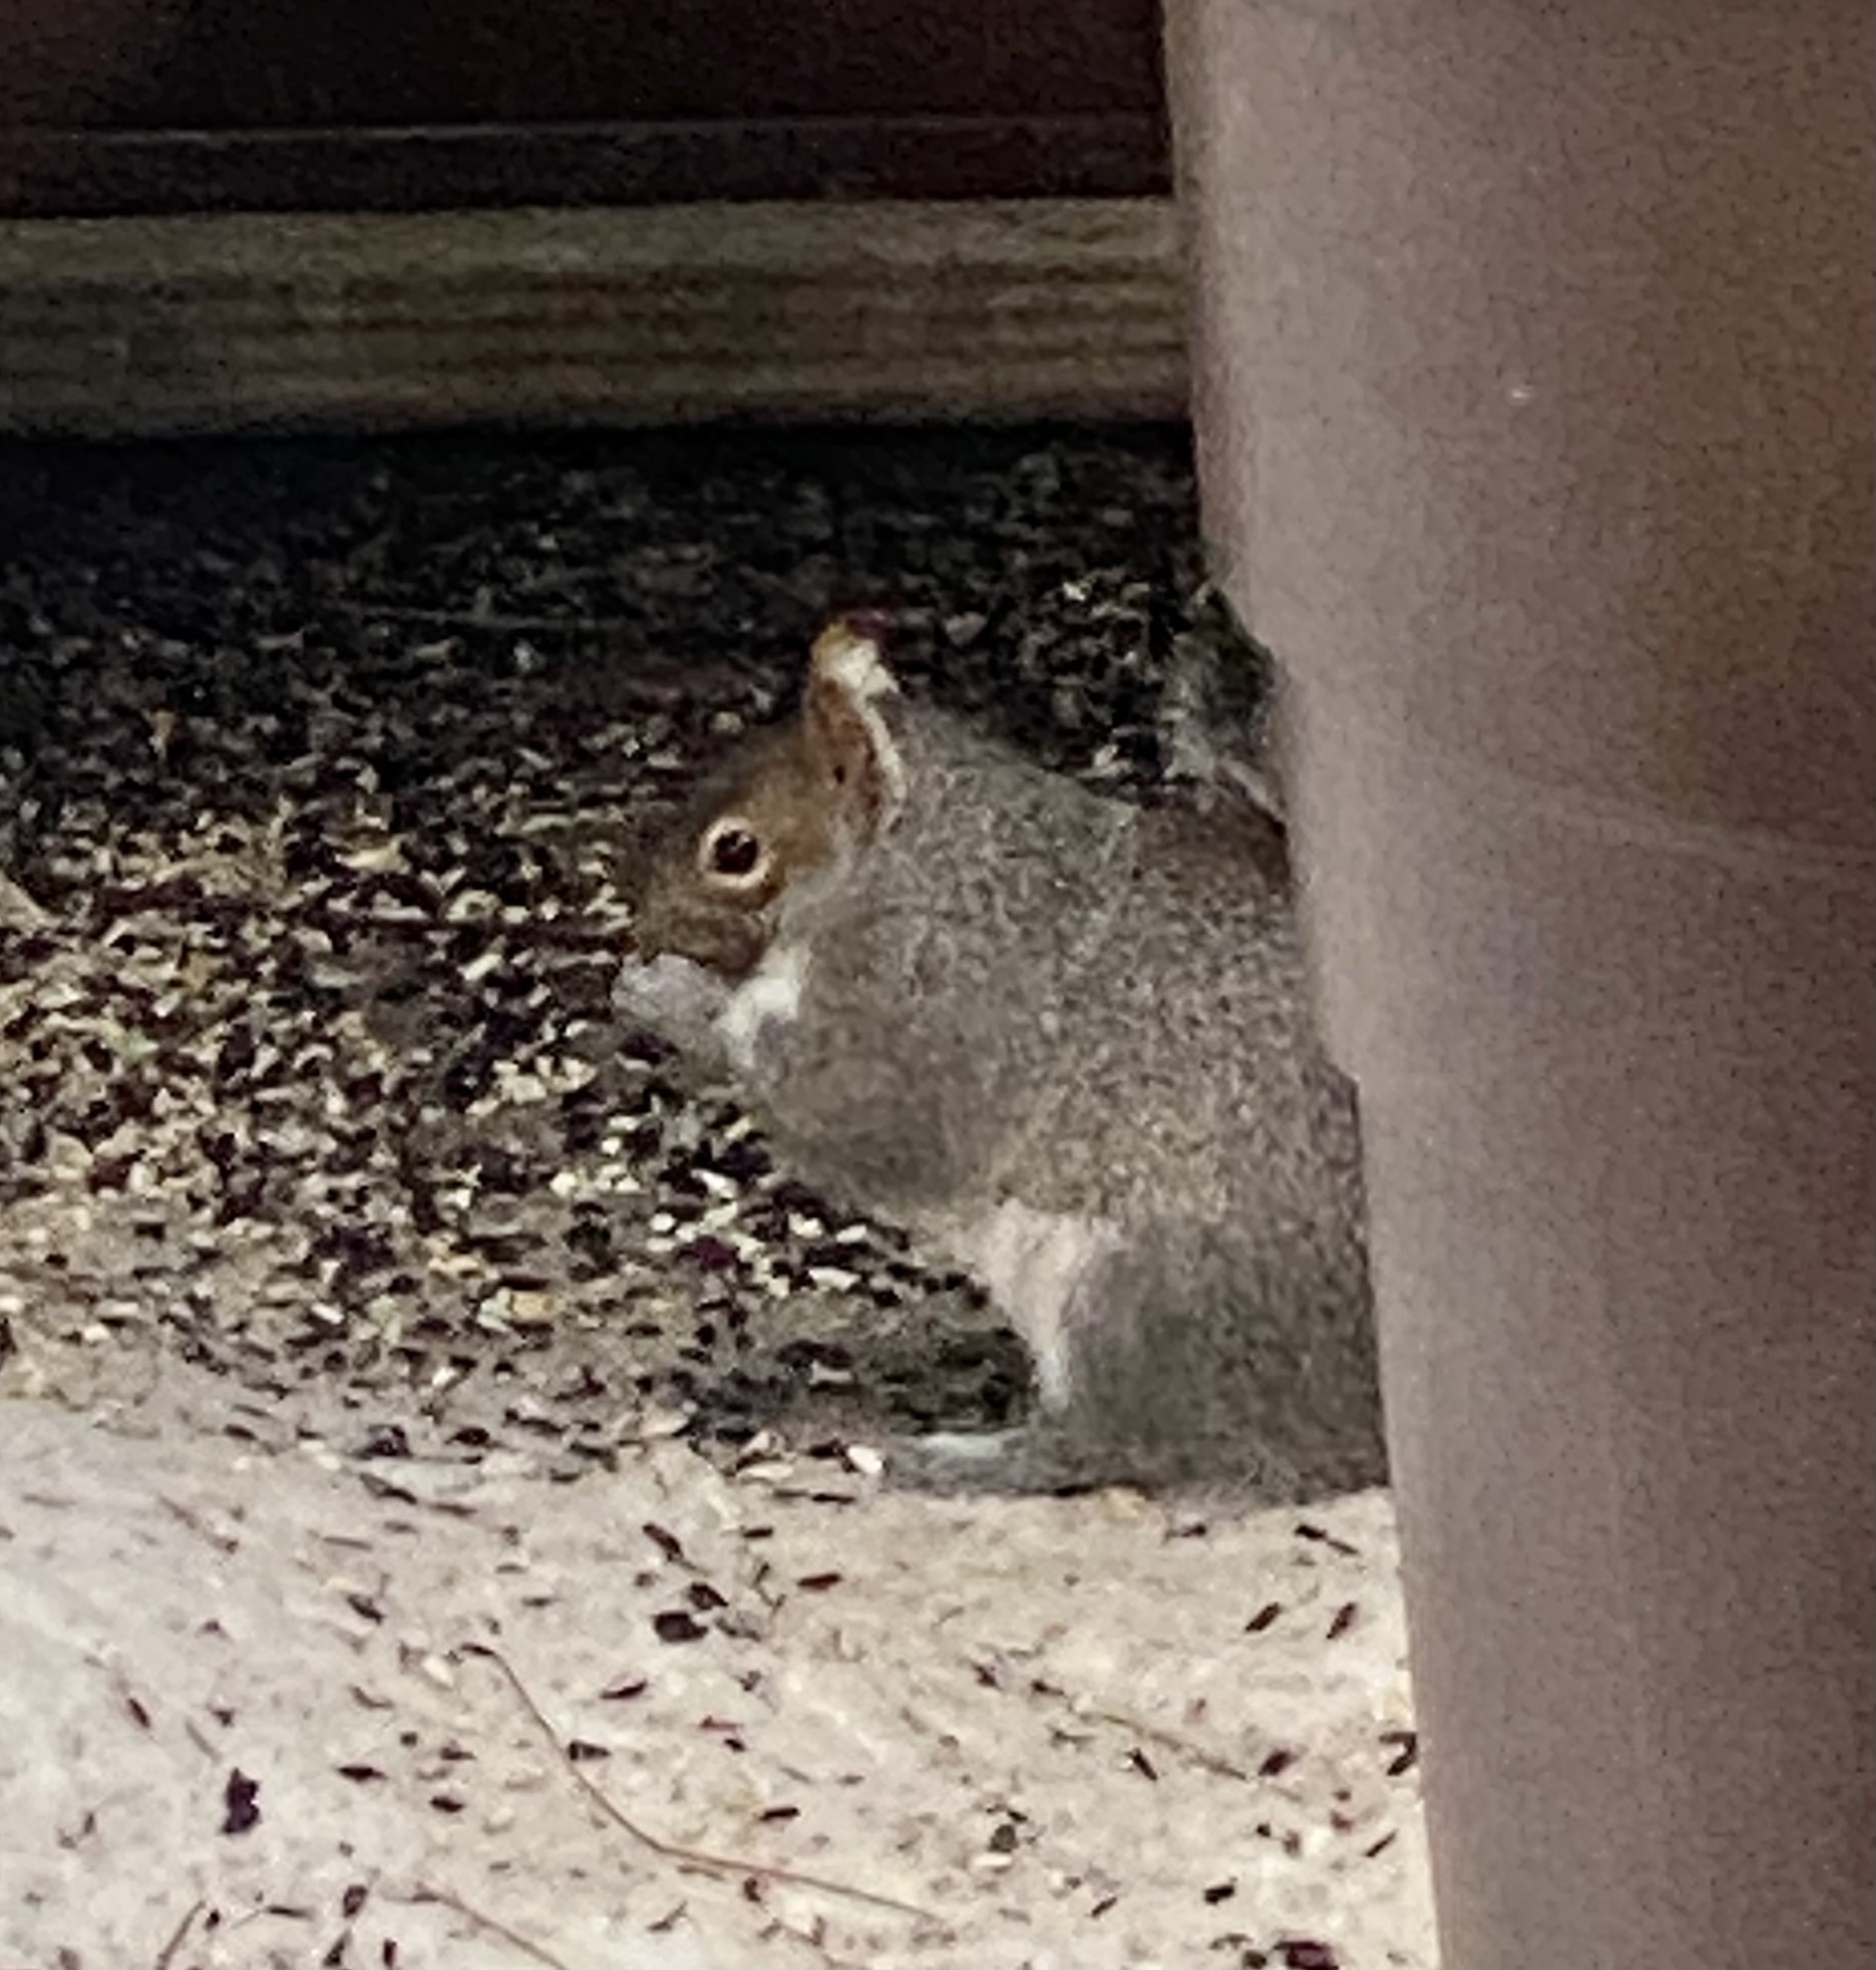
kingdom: Animalia
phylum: Chordata
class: Mammalia
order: Rodentia
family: Sciuridae
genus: Sciurus
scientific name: Sciurus carolinensis
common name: Eastern gray squirrel
